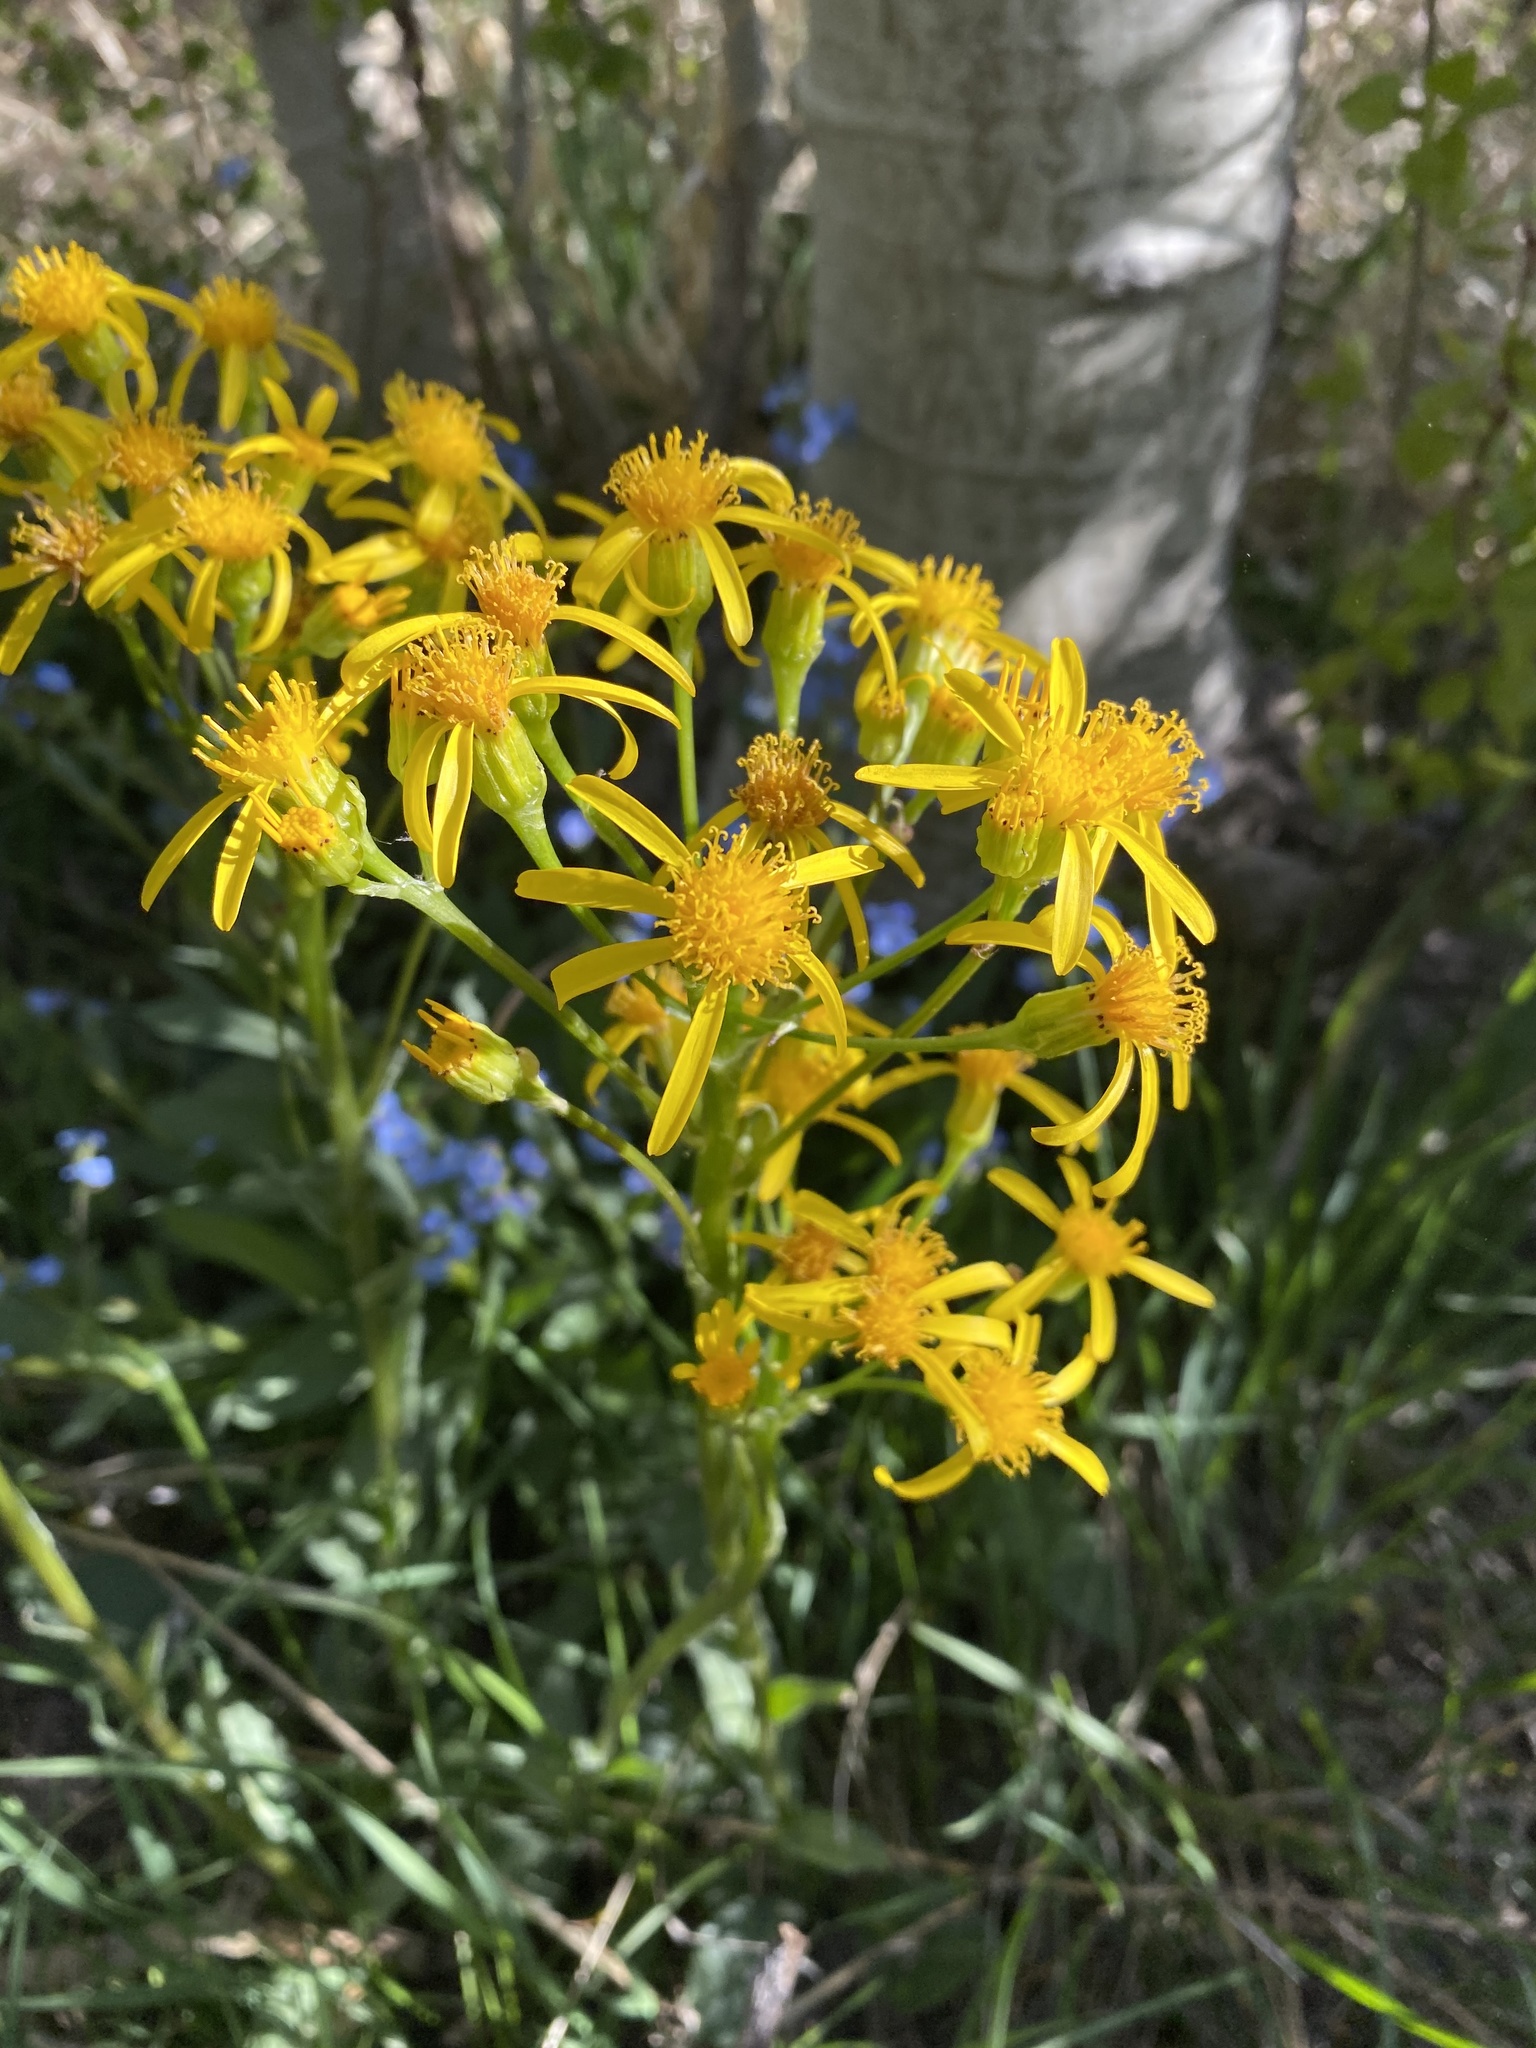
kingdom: Plantae
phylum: Tracheophyta
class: Magnoliopsida
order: Asterales
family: Asteraceae
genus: Senecio
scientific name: Senecio integerrimus
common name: Gaugeplant
